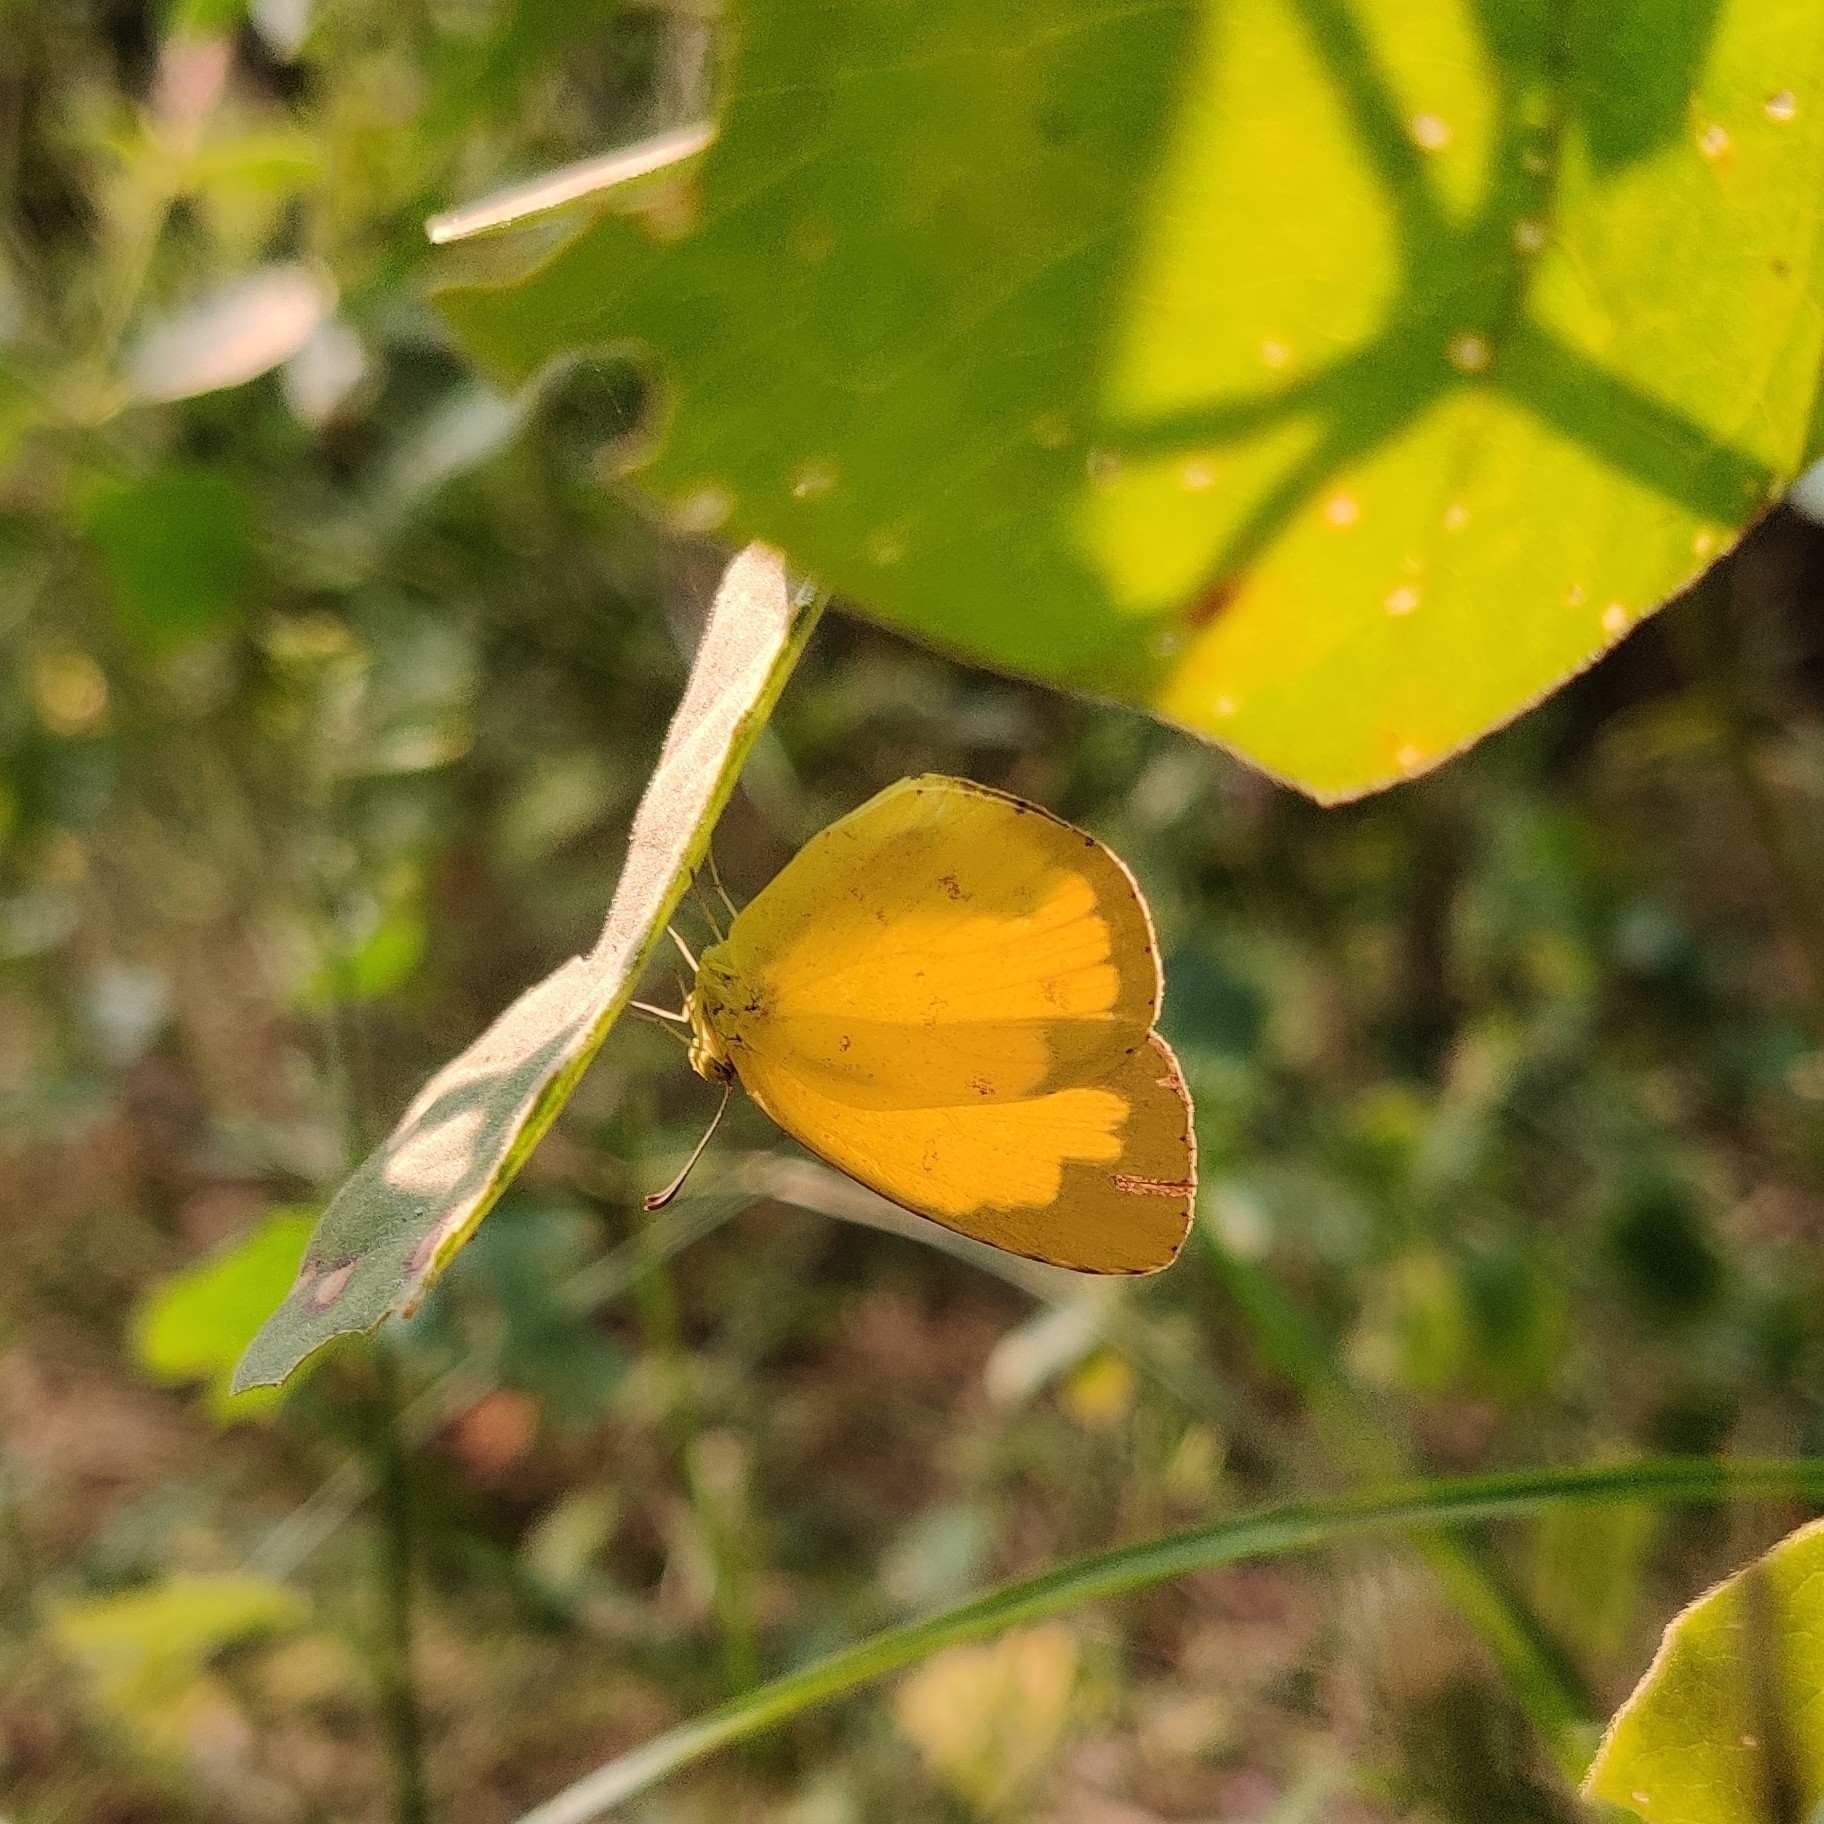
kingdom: Animalia
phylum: Arthropoda
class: Insecta
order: Lepidoptera
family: Pieridae
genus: Eurema
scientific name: Eurema hecabe
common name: Pale grass yellow
